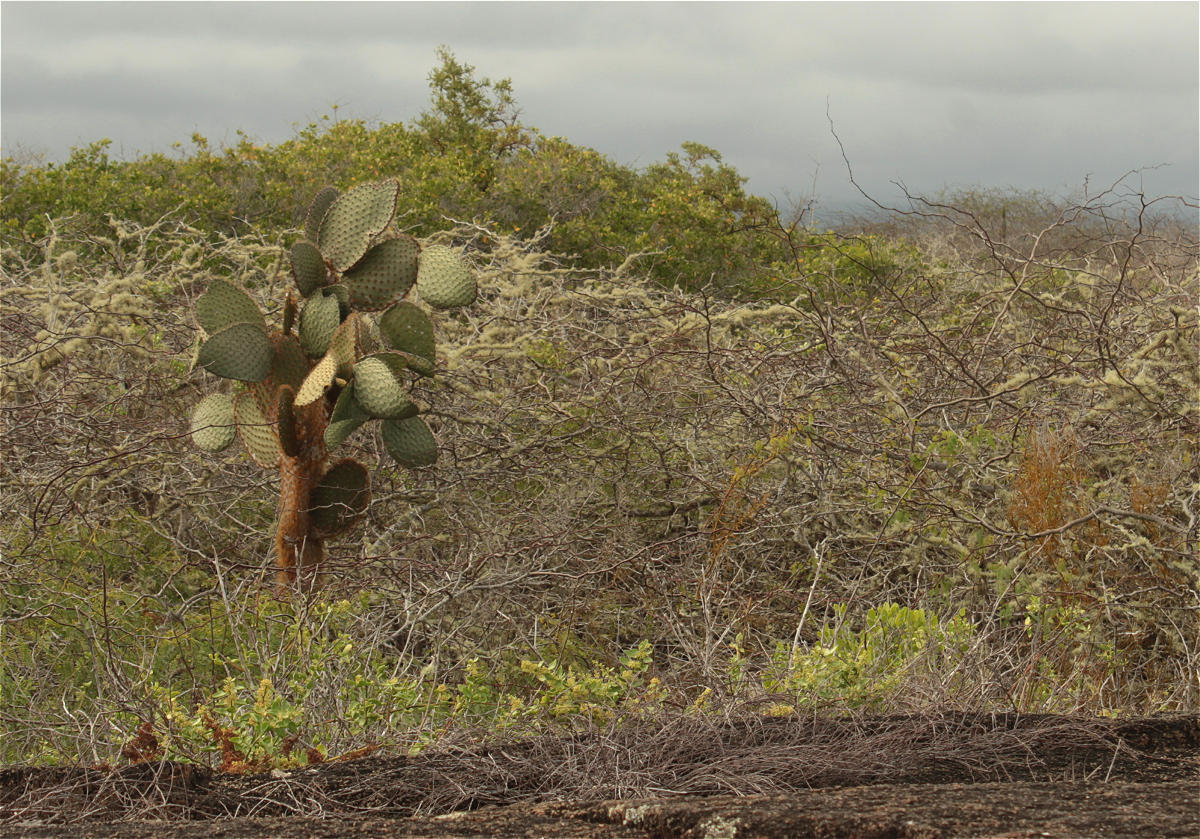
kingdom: Plantae
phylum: Tracheophyta
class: Magnoliopsida
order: Caryophyllales
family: Cactaceae
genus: Opuntia
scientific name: Opuntia galapageia
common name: Galápagos prickly pear
